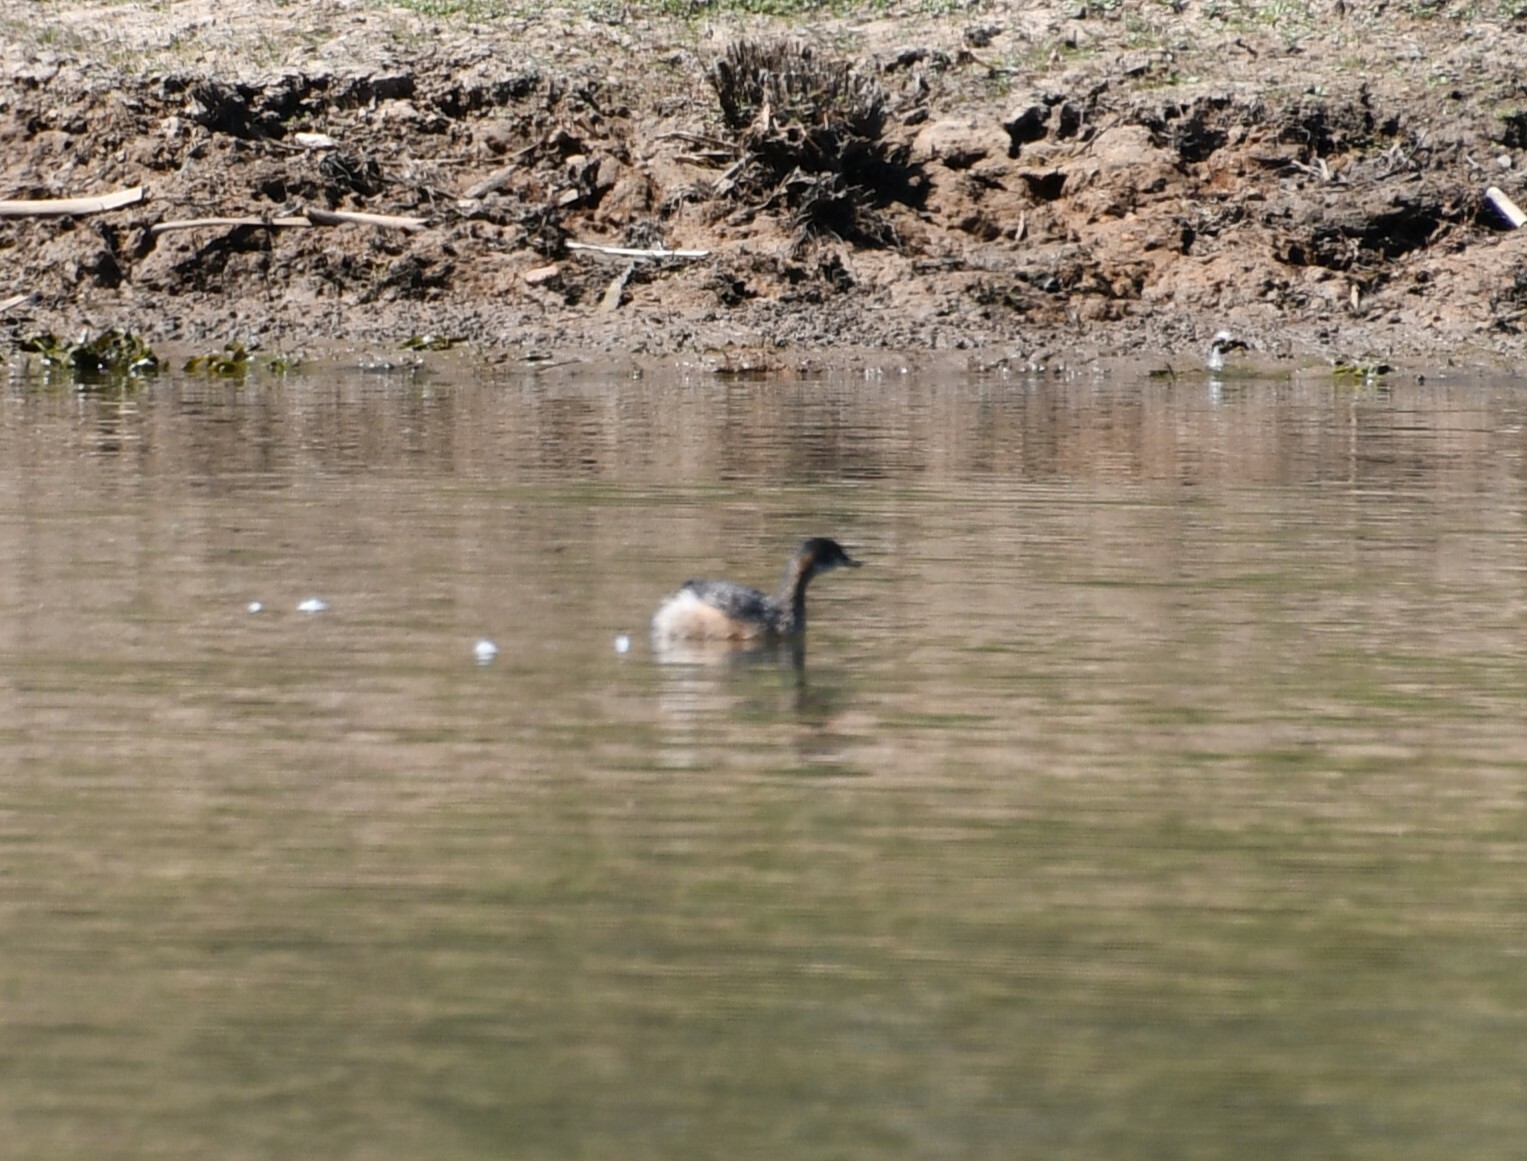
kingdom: Animalia
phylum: Chordata
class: Aves
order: Podicipediformes
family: Podicipedidae
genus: Tachybaptus
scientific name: Tachybaptus novaehollandiae
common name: Australasian grebe
